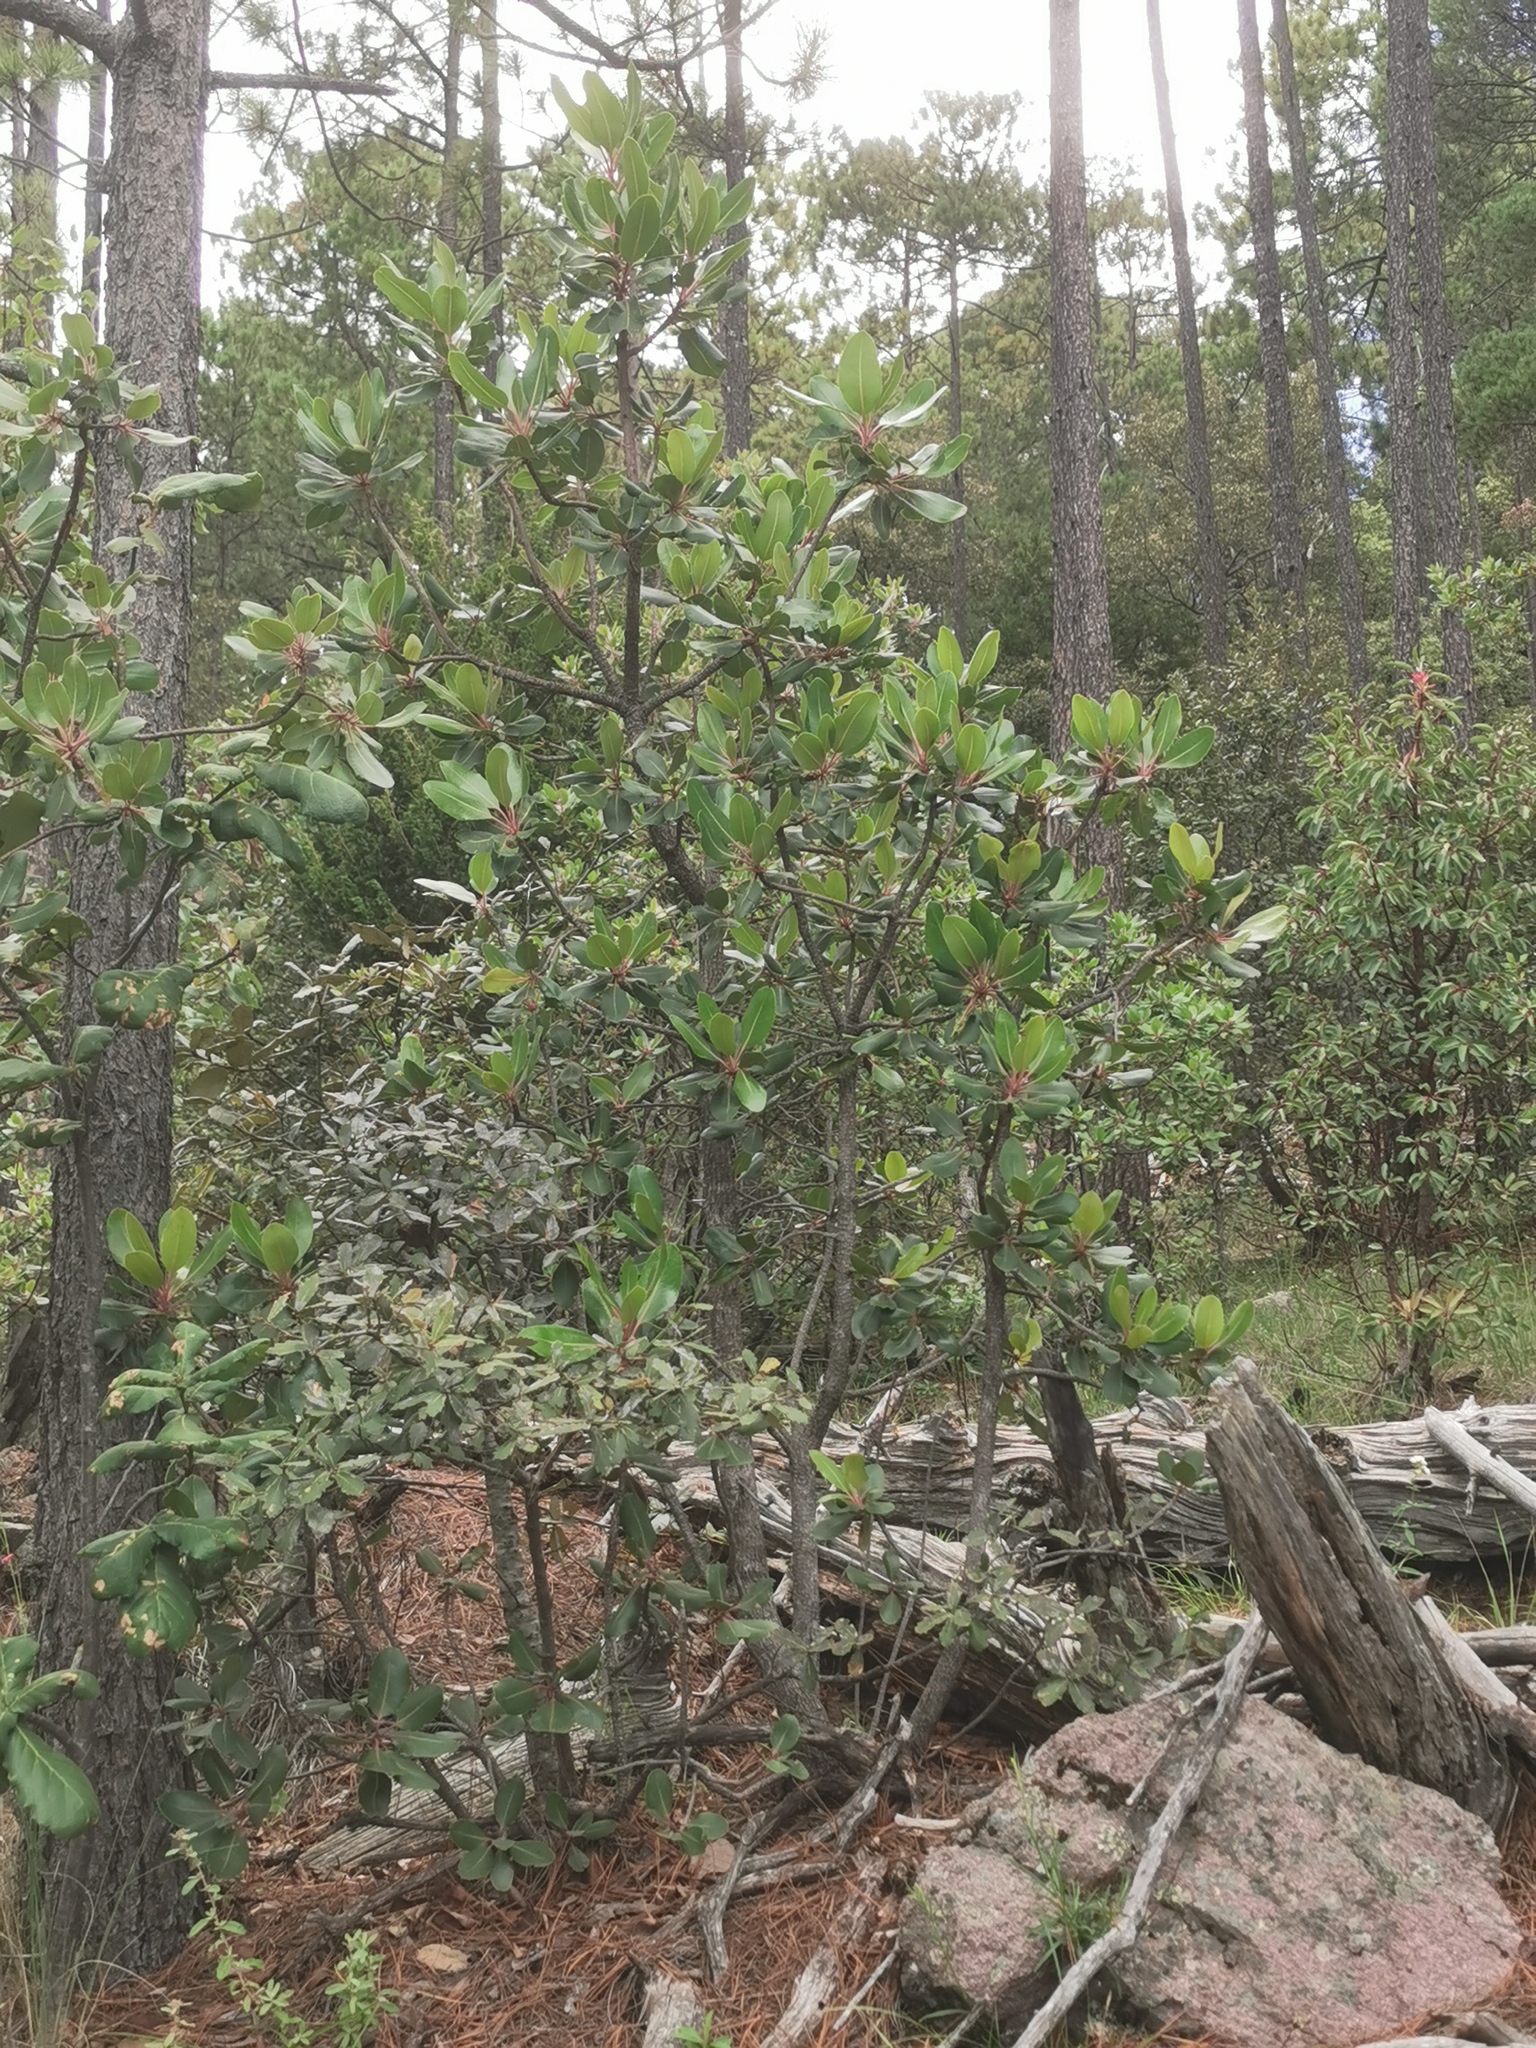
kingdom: Plantae
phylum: Tracheophyta
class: Magnoliopsida
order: Ericales
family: Ericaceae
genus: Arbutus
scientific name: Arbutus madrensis
